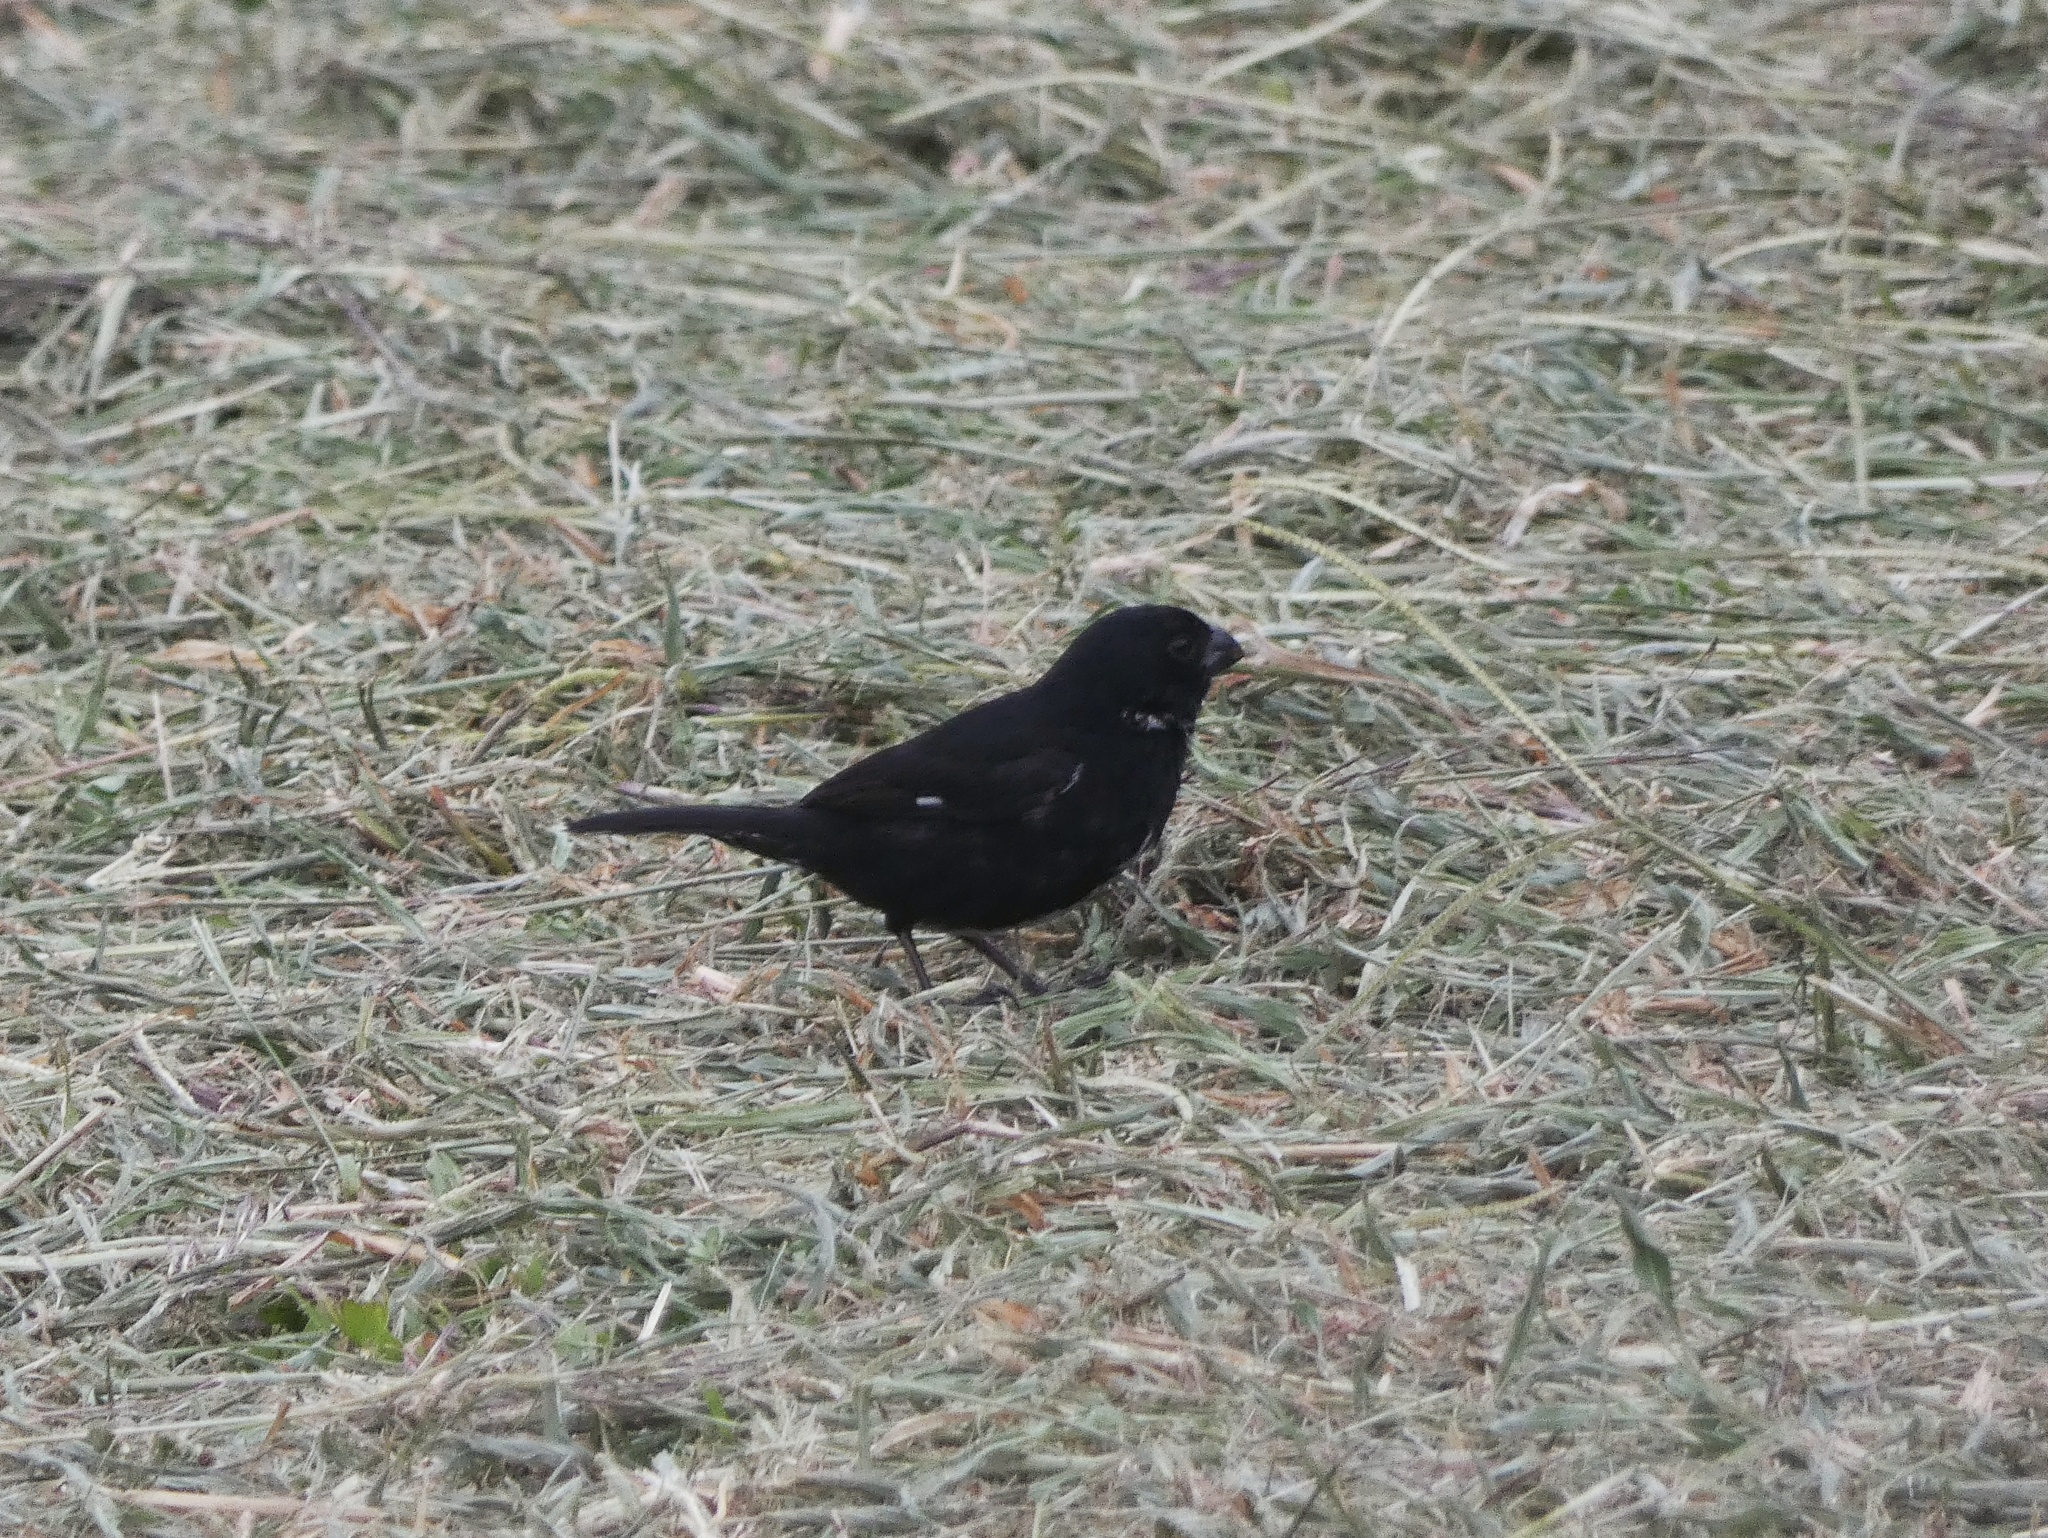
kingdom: Animalia
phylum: Chordata
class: Aves
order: Passeriformes
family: Thraupidae
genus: Sporophila
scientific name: Sporophila corvina
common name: Variable seedeater
